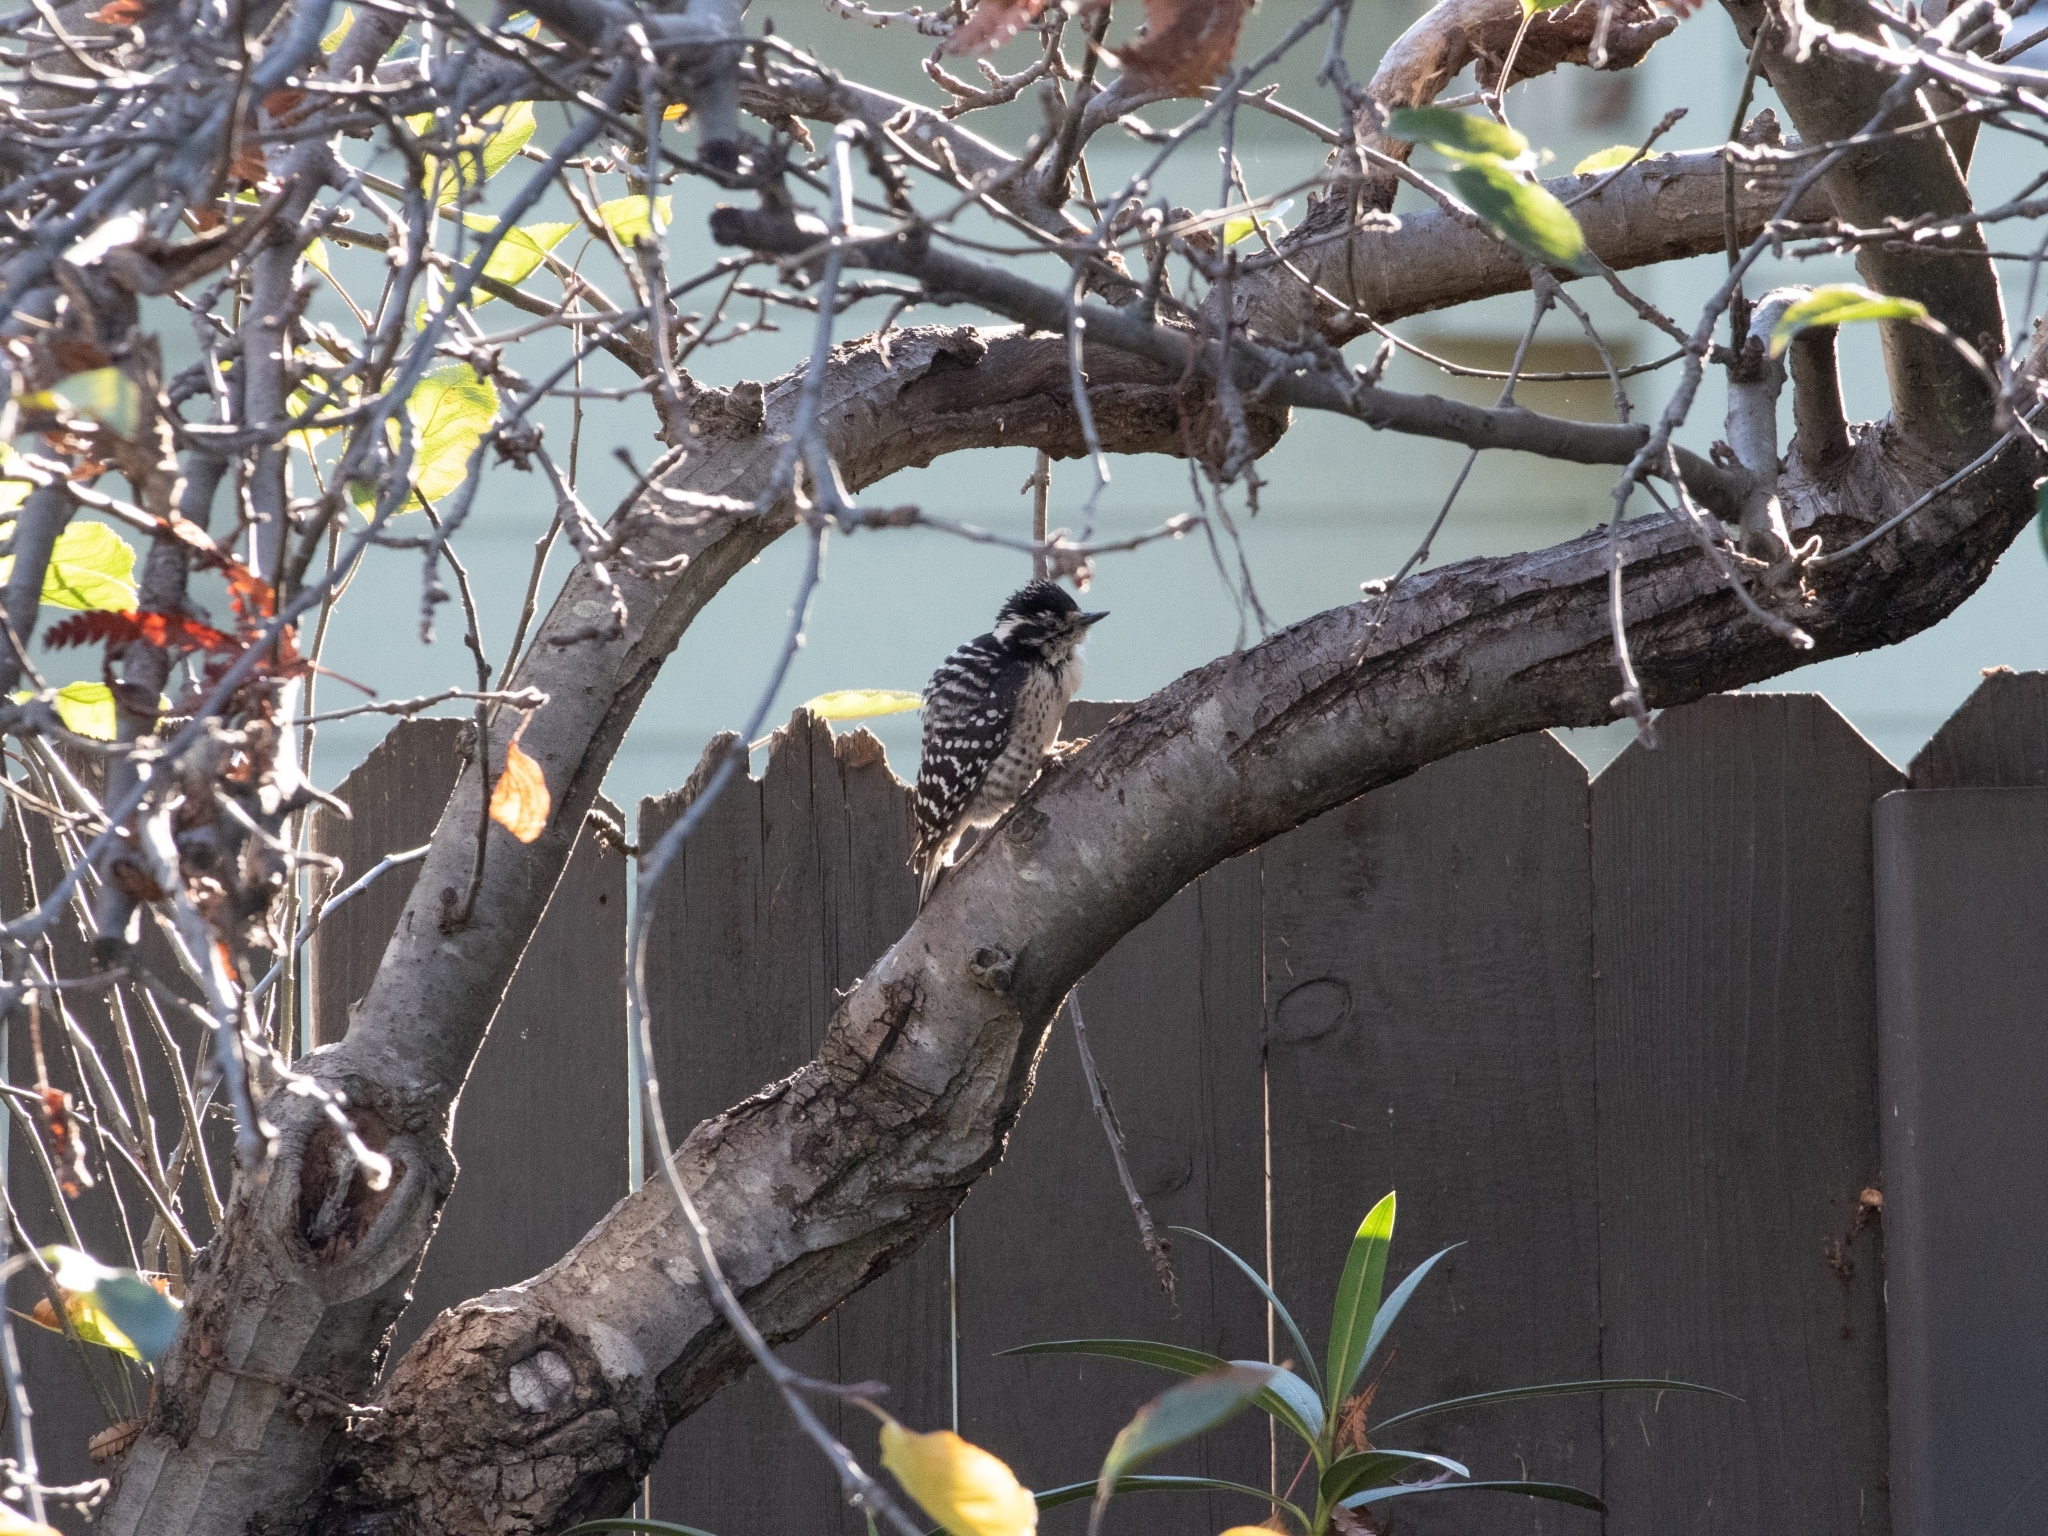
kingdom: Animalia
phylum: Chordata
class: Aves
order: Piciformes
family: Picidae
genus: Dryobates
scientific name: Dryobates nuttallii
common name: Nuttall's woodpecker
